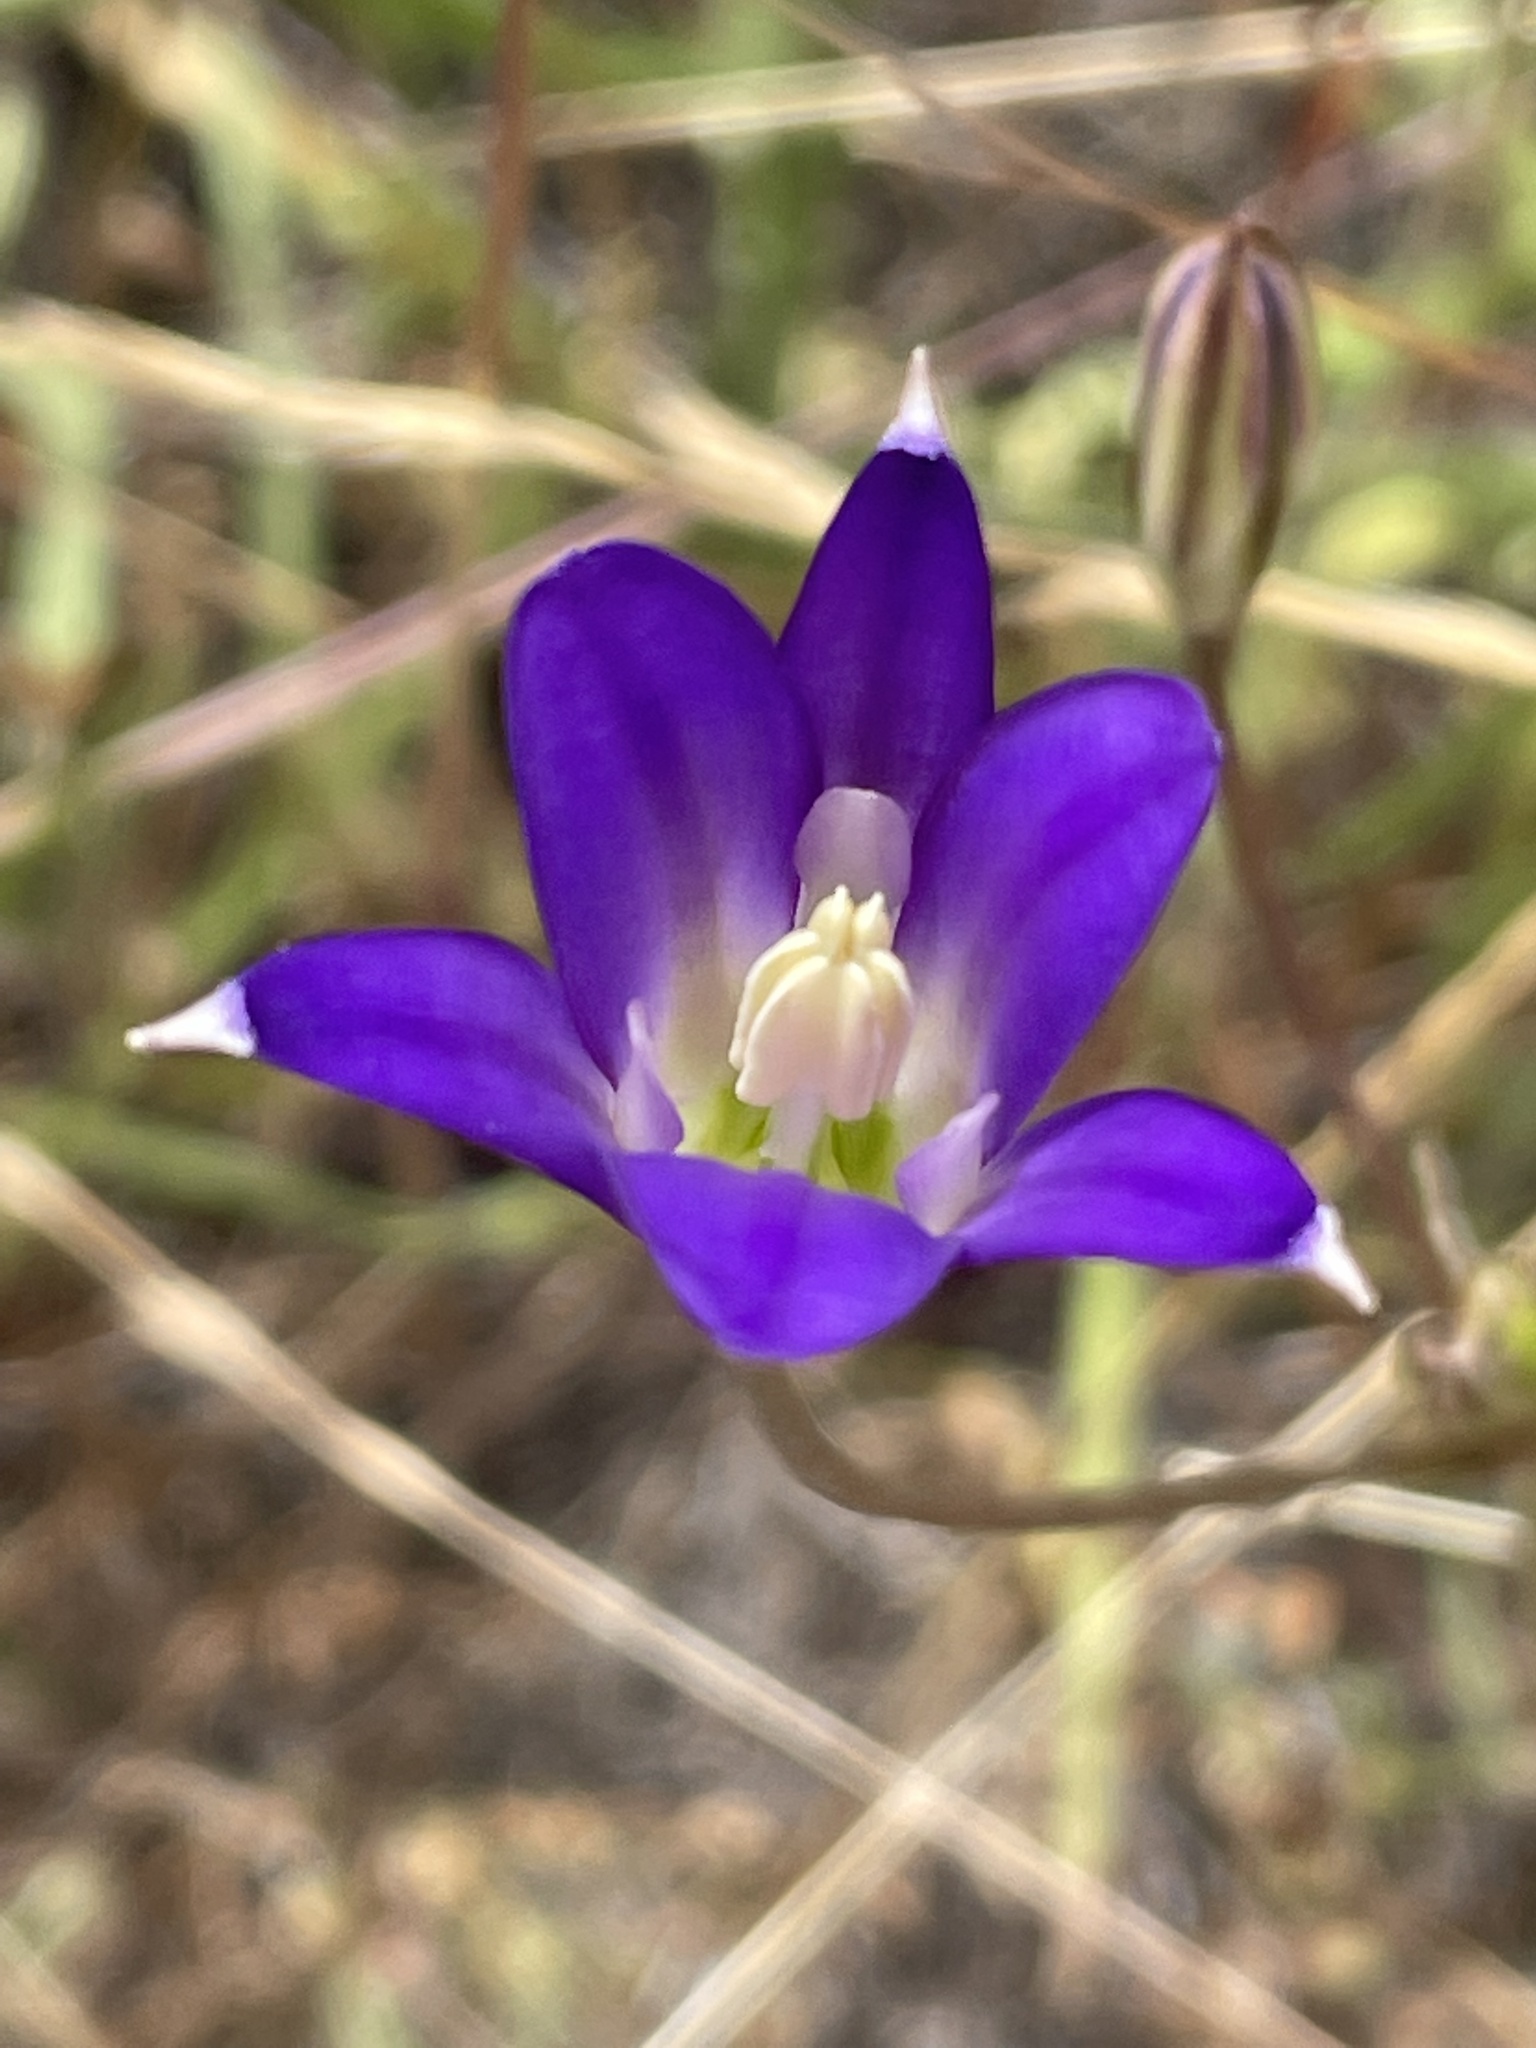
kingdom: Plantae
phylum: Tracheophyta
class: Liliopsida
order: Asparagales
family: Asparagaceae
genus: Brodiaea
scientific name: Brodiaea elegans
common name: Elegant cluster-lily
